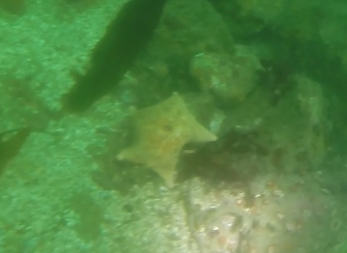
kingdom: Animalia
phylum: Echinodermata
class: Asteroidea
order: Valvatida
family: Asterinidae
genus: Patiria
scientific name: Patiria miniata
